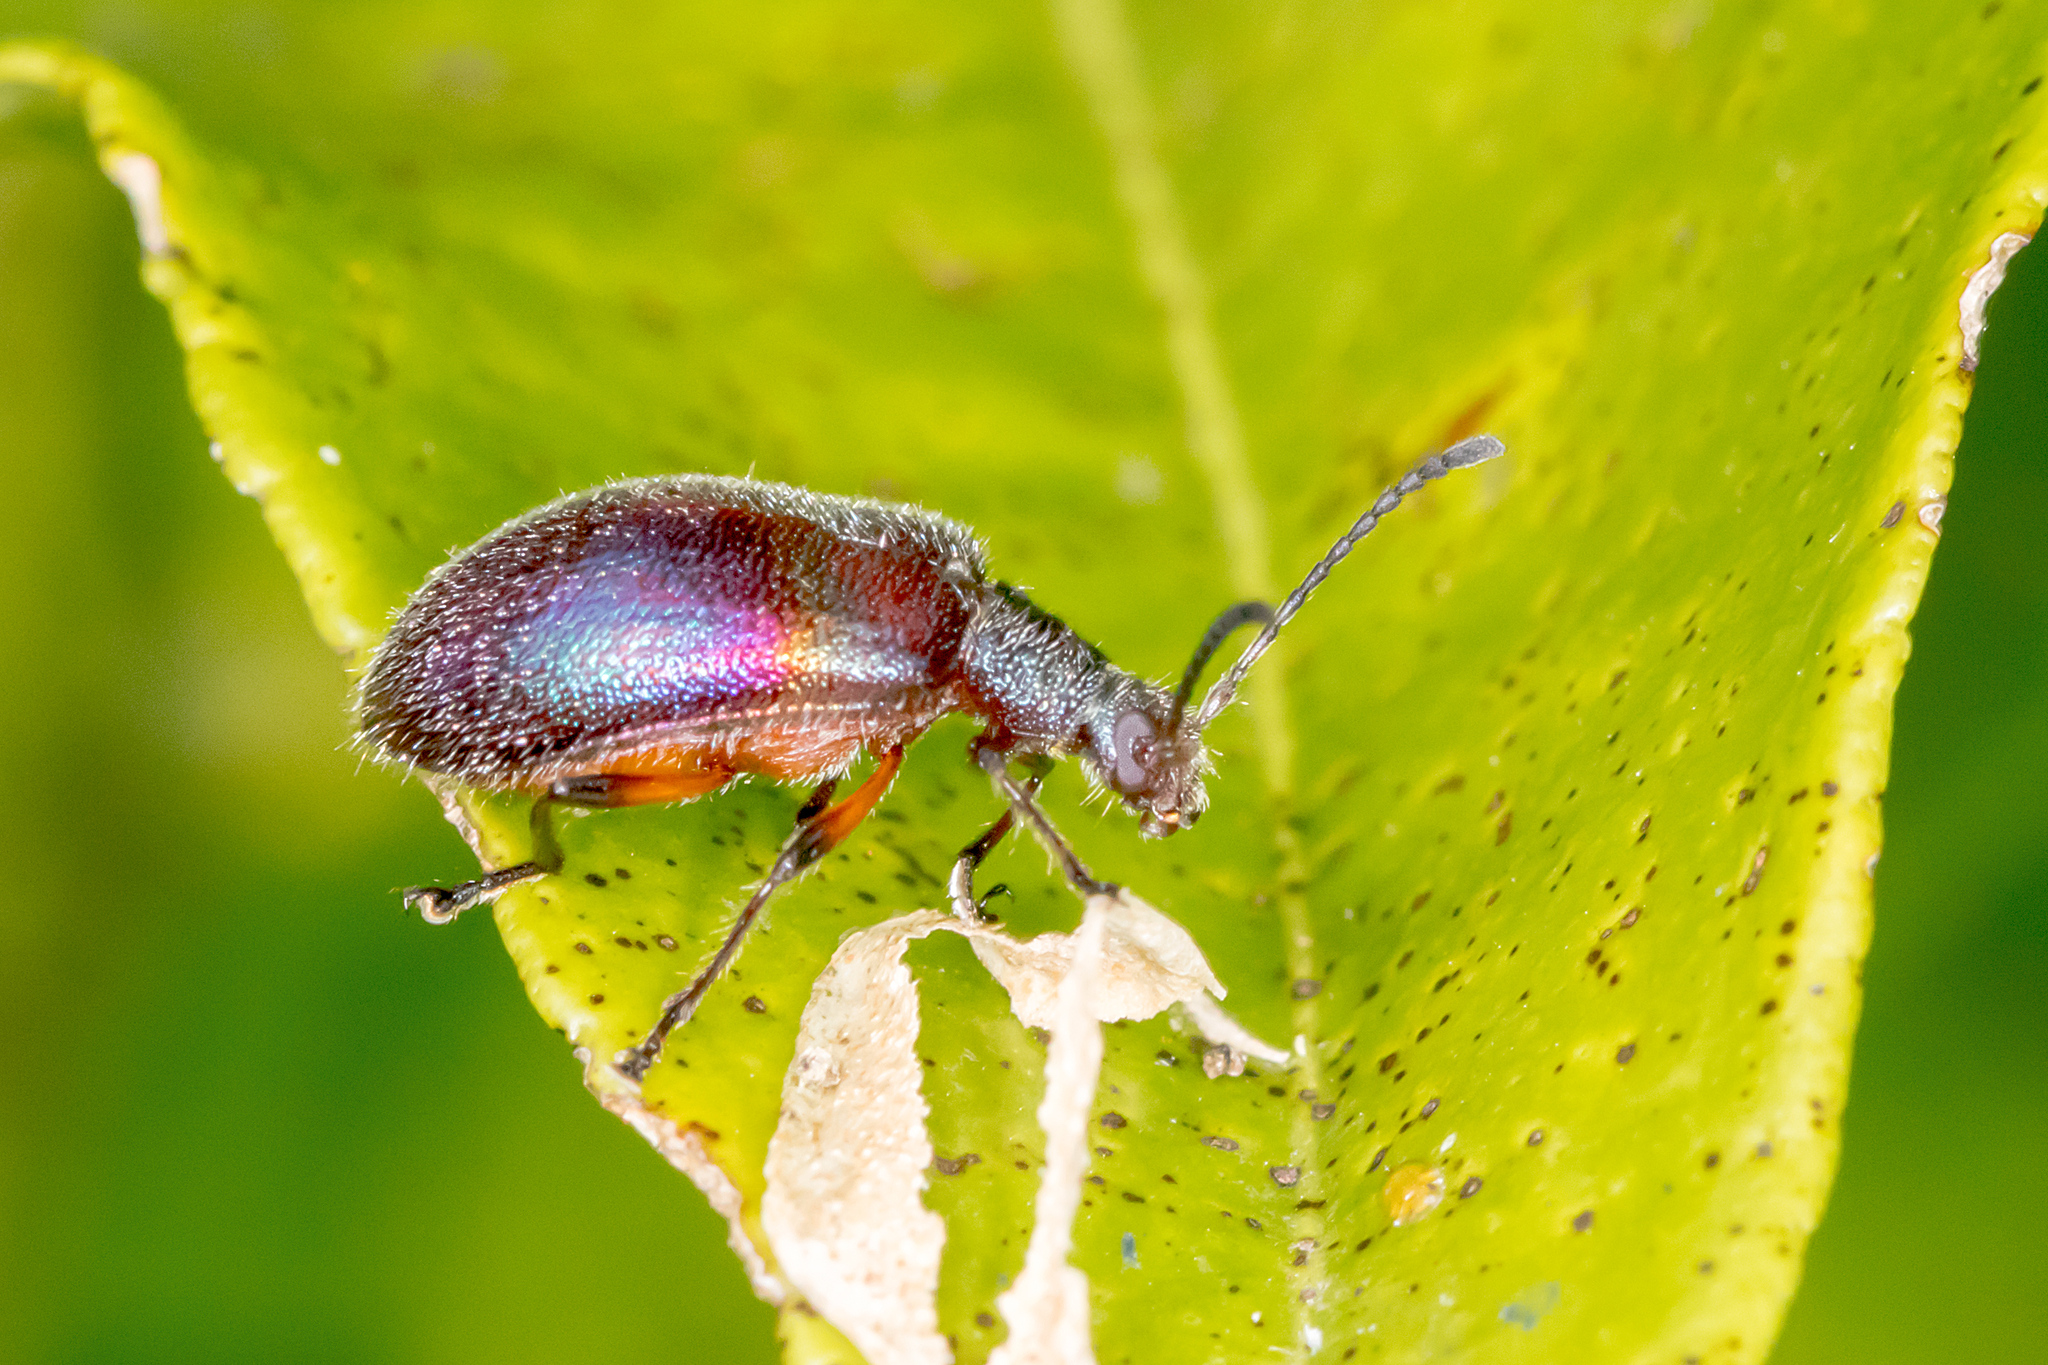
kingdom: Animalia
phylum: Arthropoda
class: Insecta
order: Coleoptera
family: Tenebrionidae
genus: Ecnolagria
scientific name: Ecnolagria
